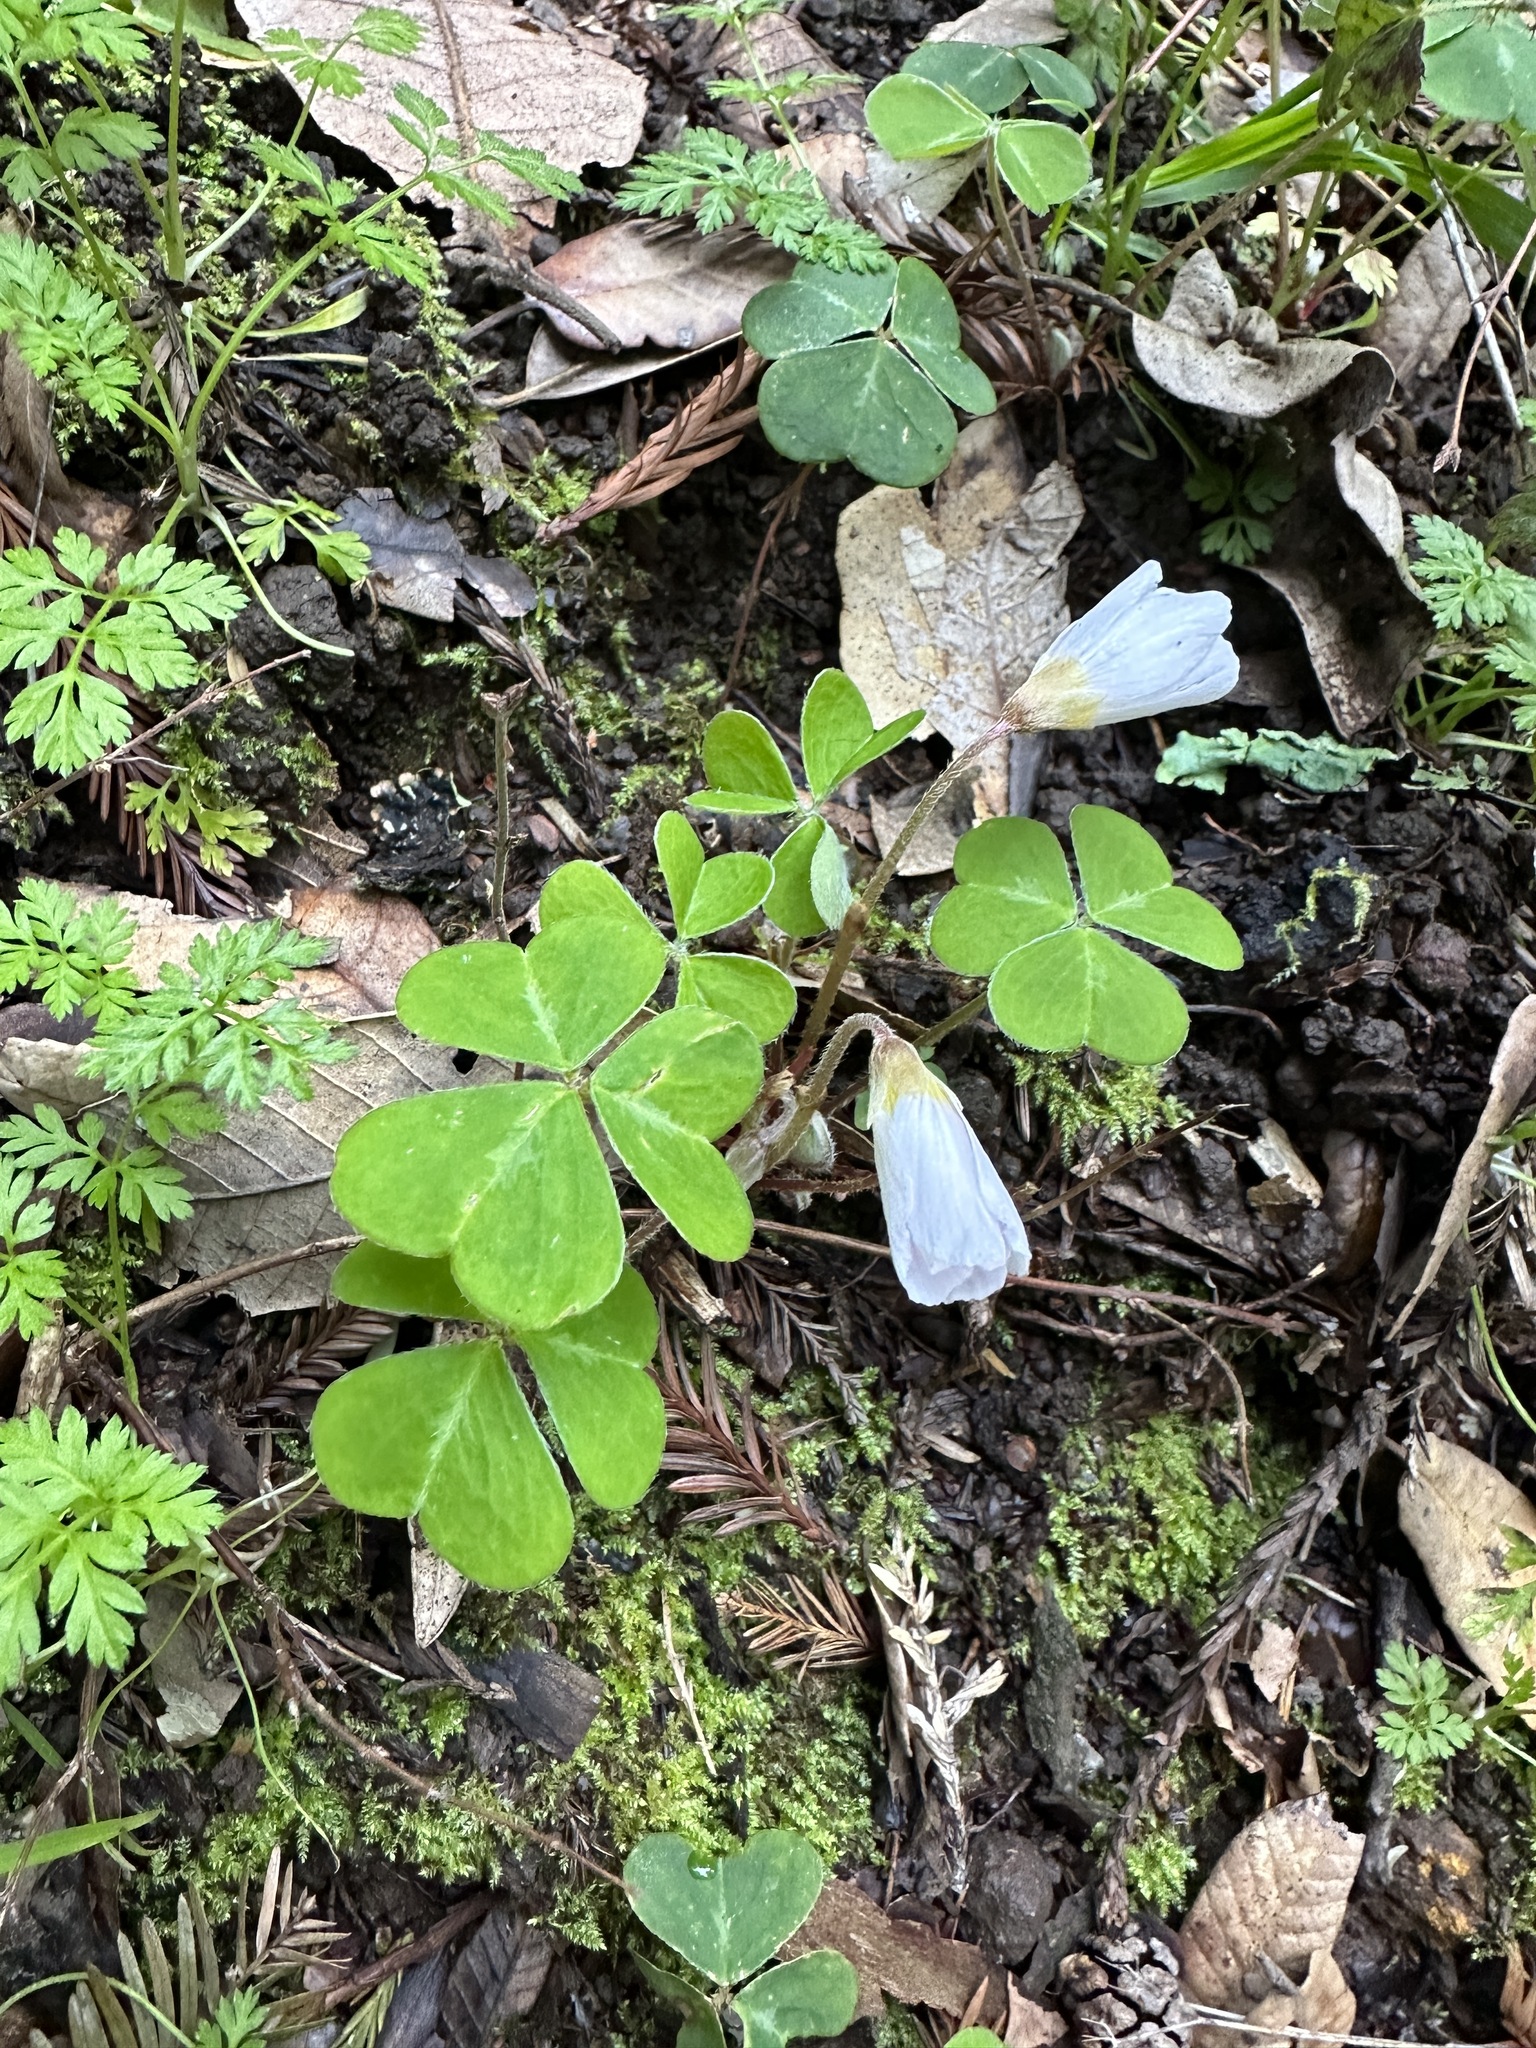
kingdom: Plantae
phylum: Tracheophyta
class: Magnoliopsida
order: Oxalidales
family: Oxalidaceae
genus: Oxalis
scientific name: Oxalis oregana
